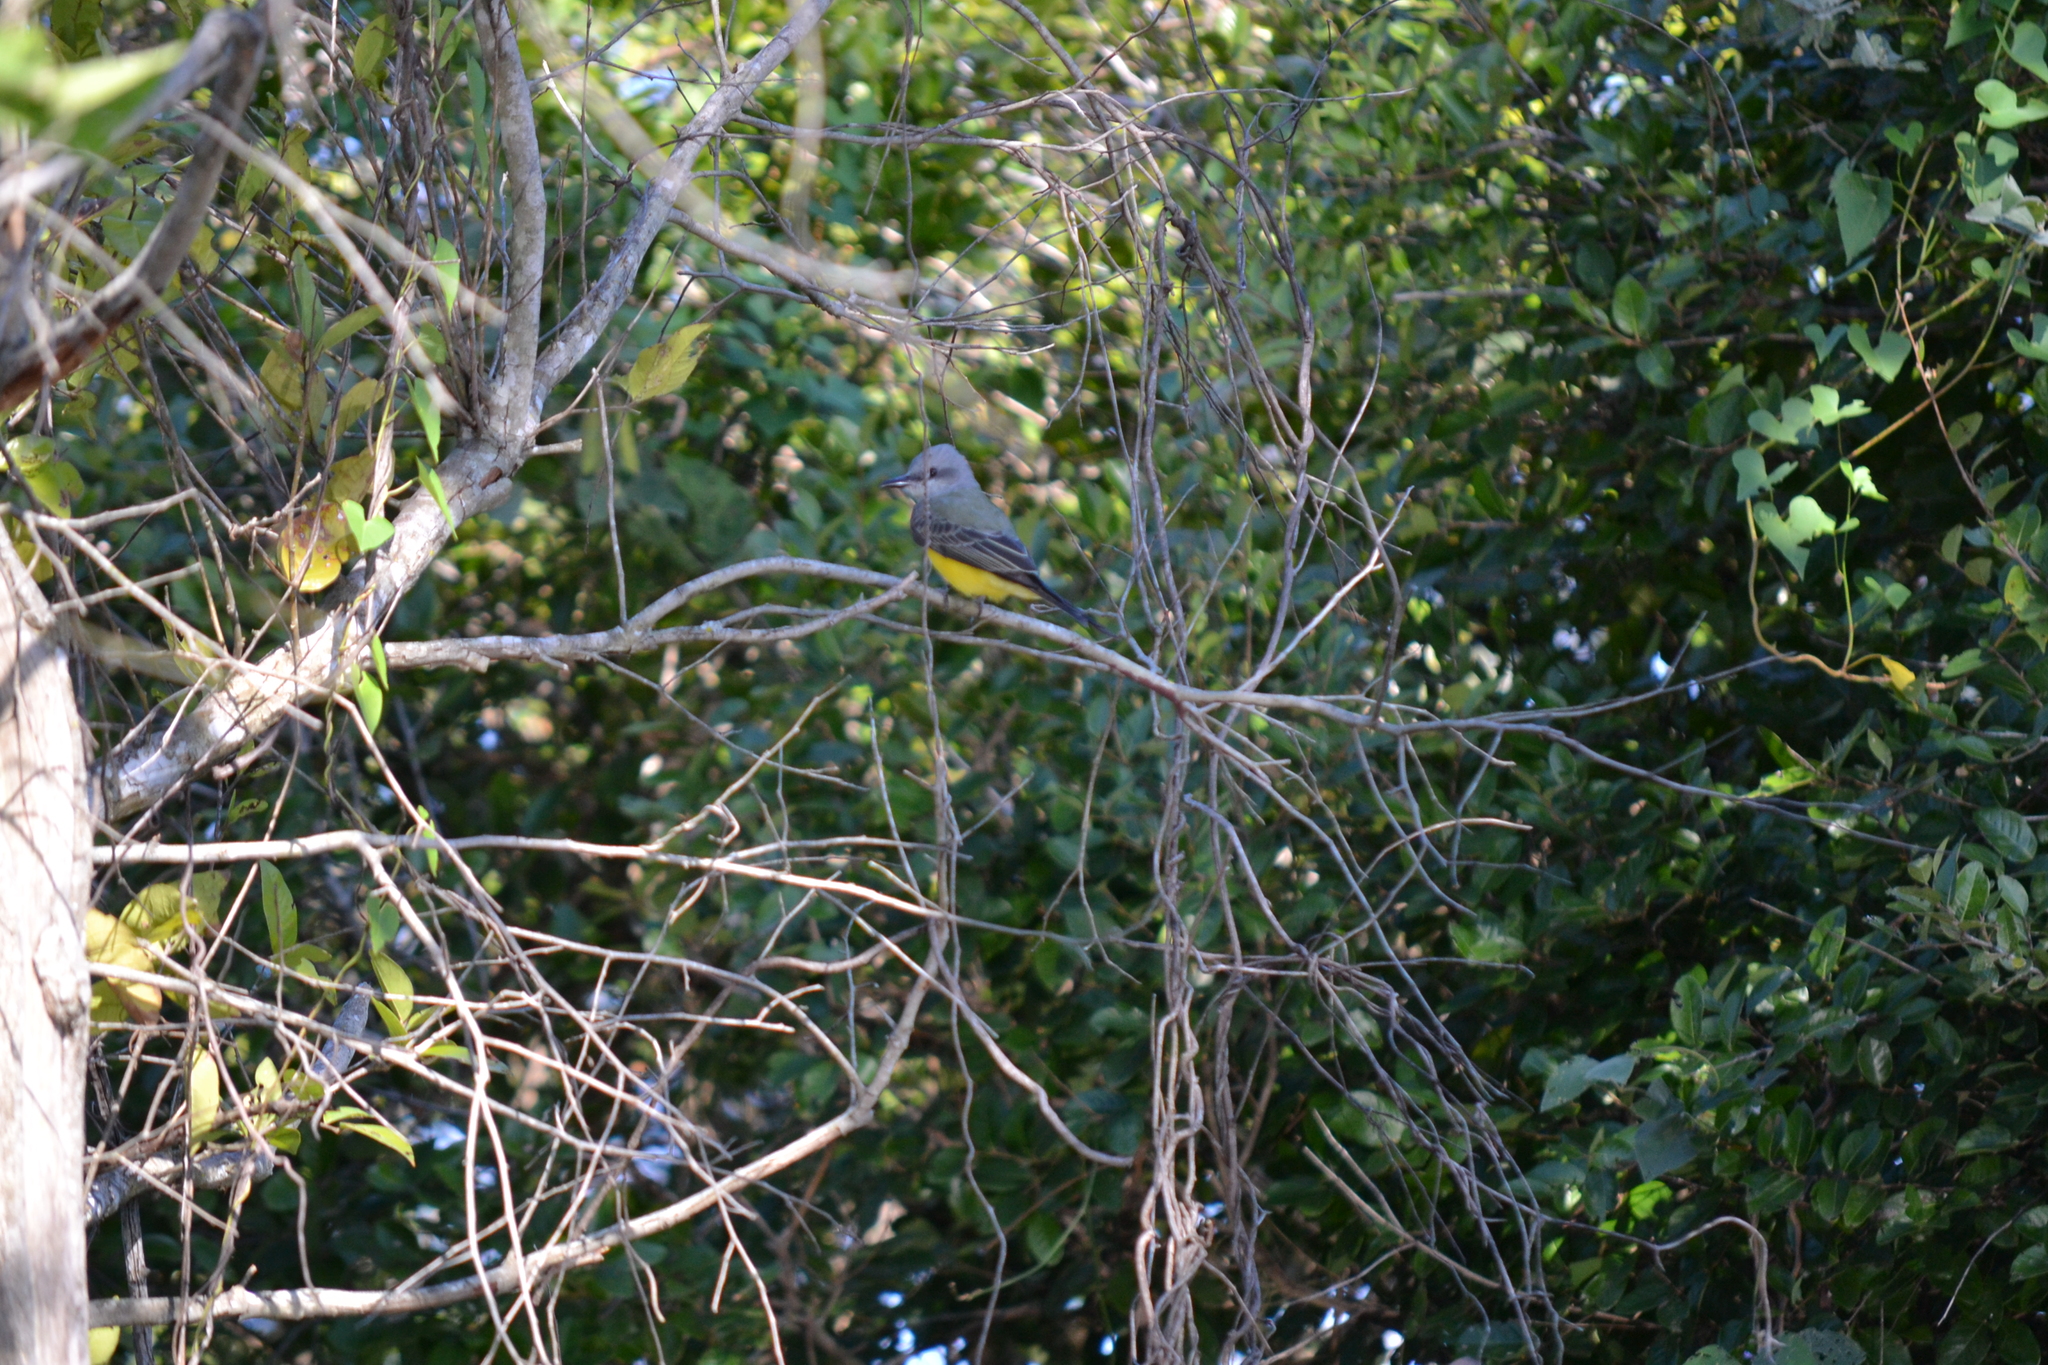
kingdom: Animalia
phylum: Chordata
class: Aves
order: Passeriformes
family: Tyrannidae
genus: Tyrannus
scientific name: Tyrannus melancholicus
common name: Tropical kingbird
